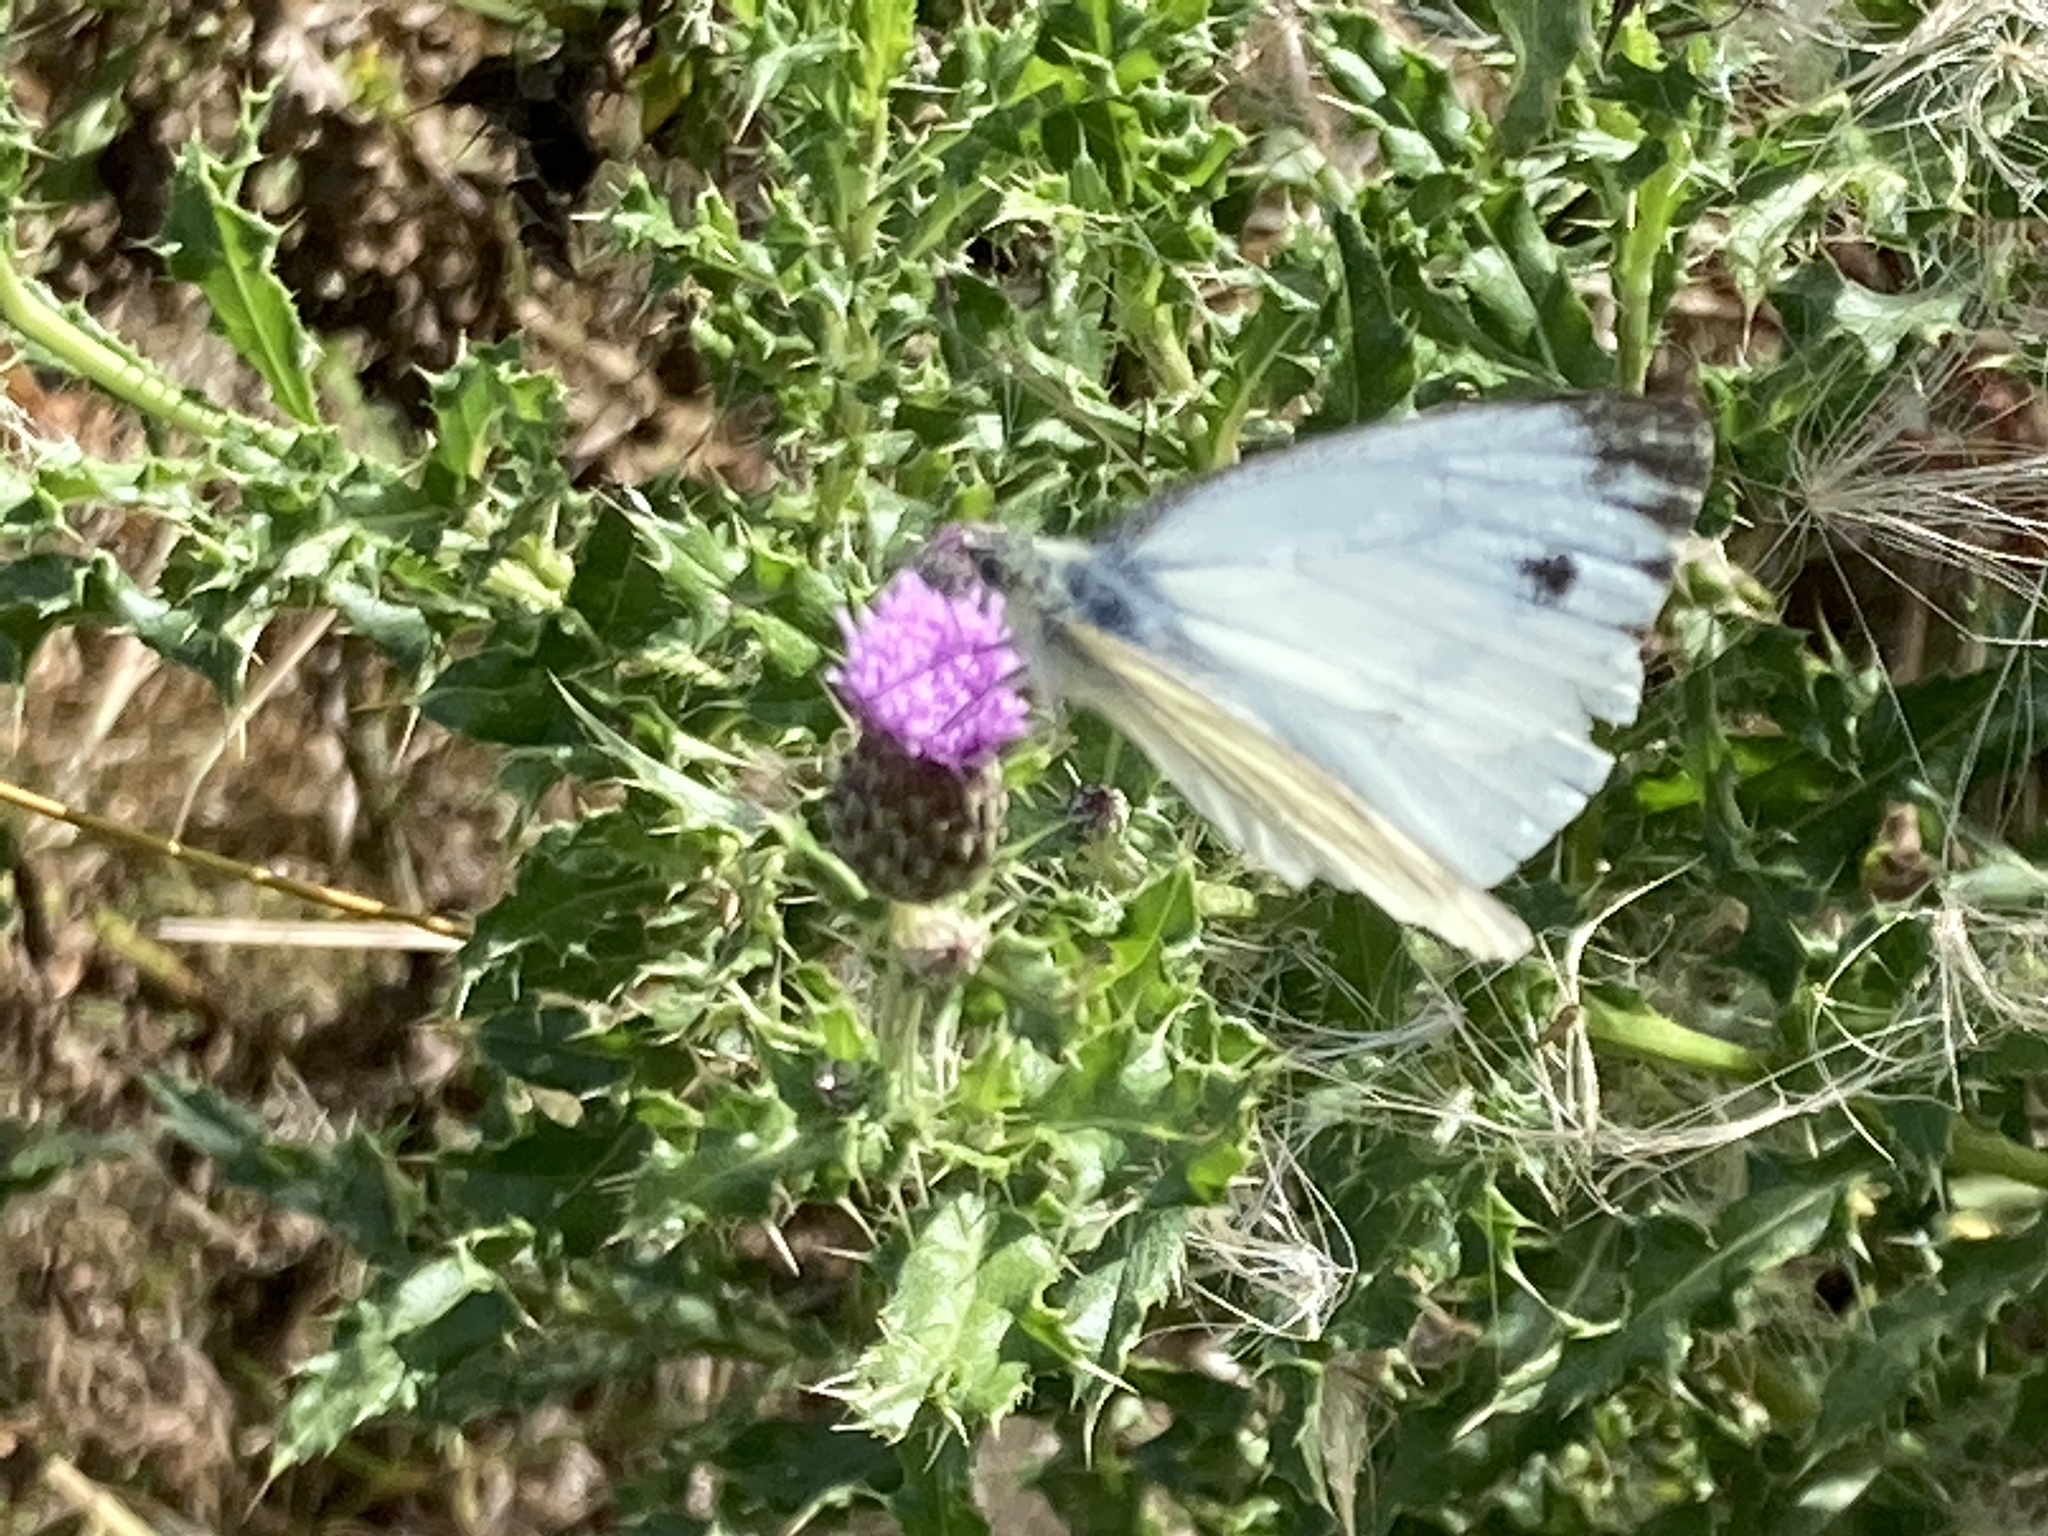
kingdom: Animalia
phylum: Arthropoda
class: Insecta
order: Lepidoptera
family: Pieridae
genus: Pieris
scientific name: Pieris napi
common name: Green-veined white
